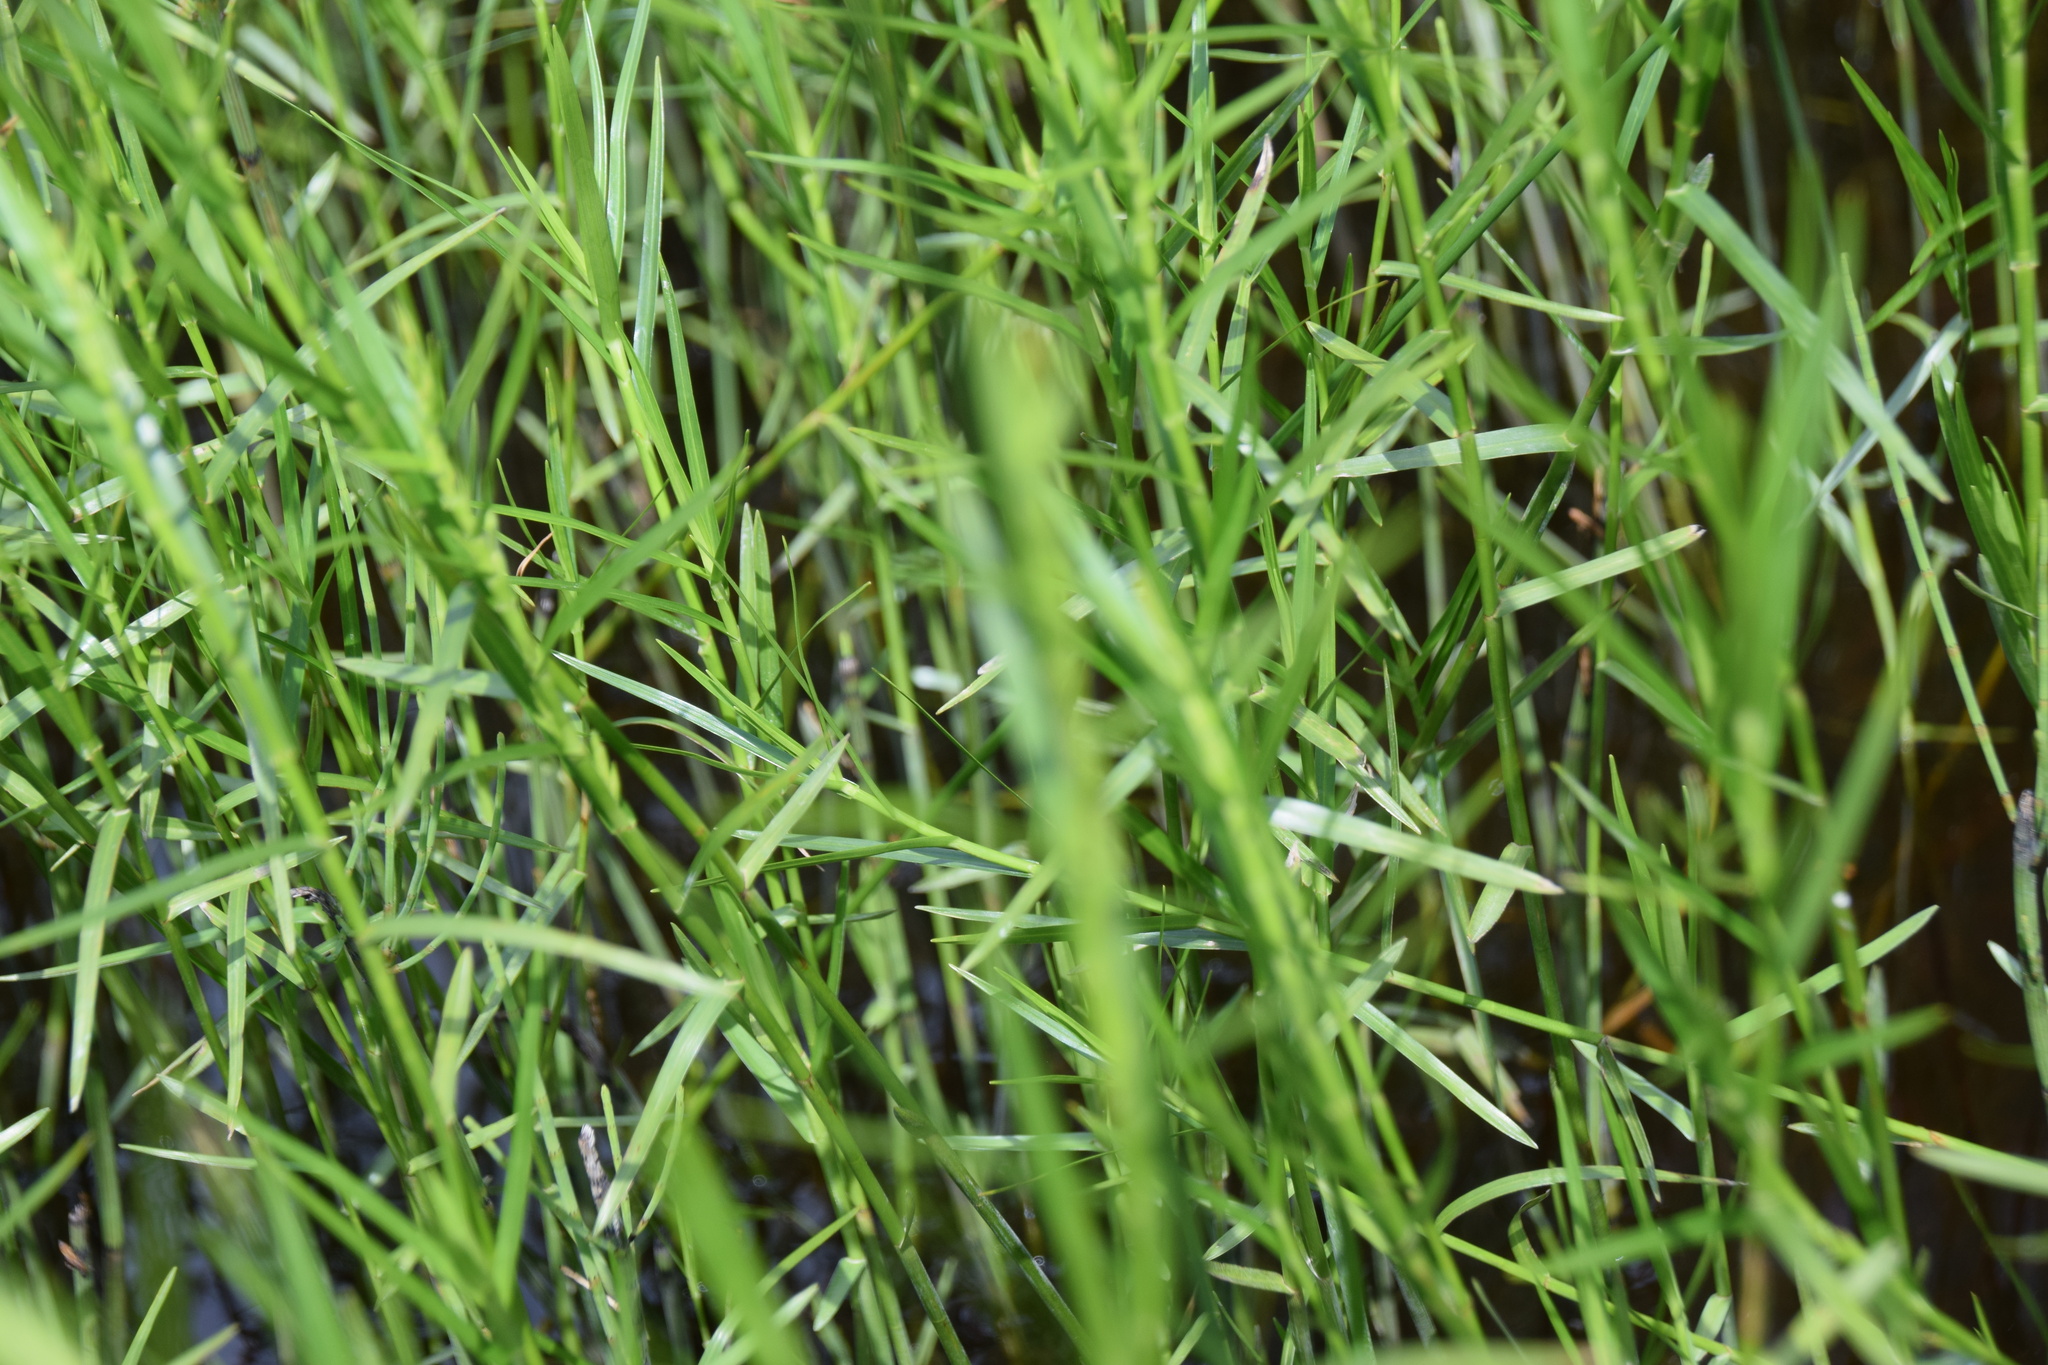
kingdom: Plantae
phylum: Tracheophyta
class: Liliopsida
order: Poales
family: Cyperaceae
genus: Dulichium
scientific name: Dulichium arundinaceum
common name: Three-way sedge
